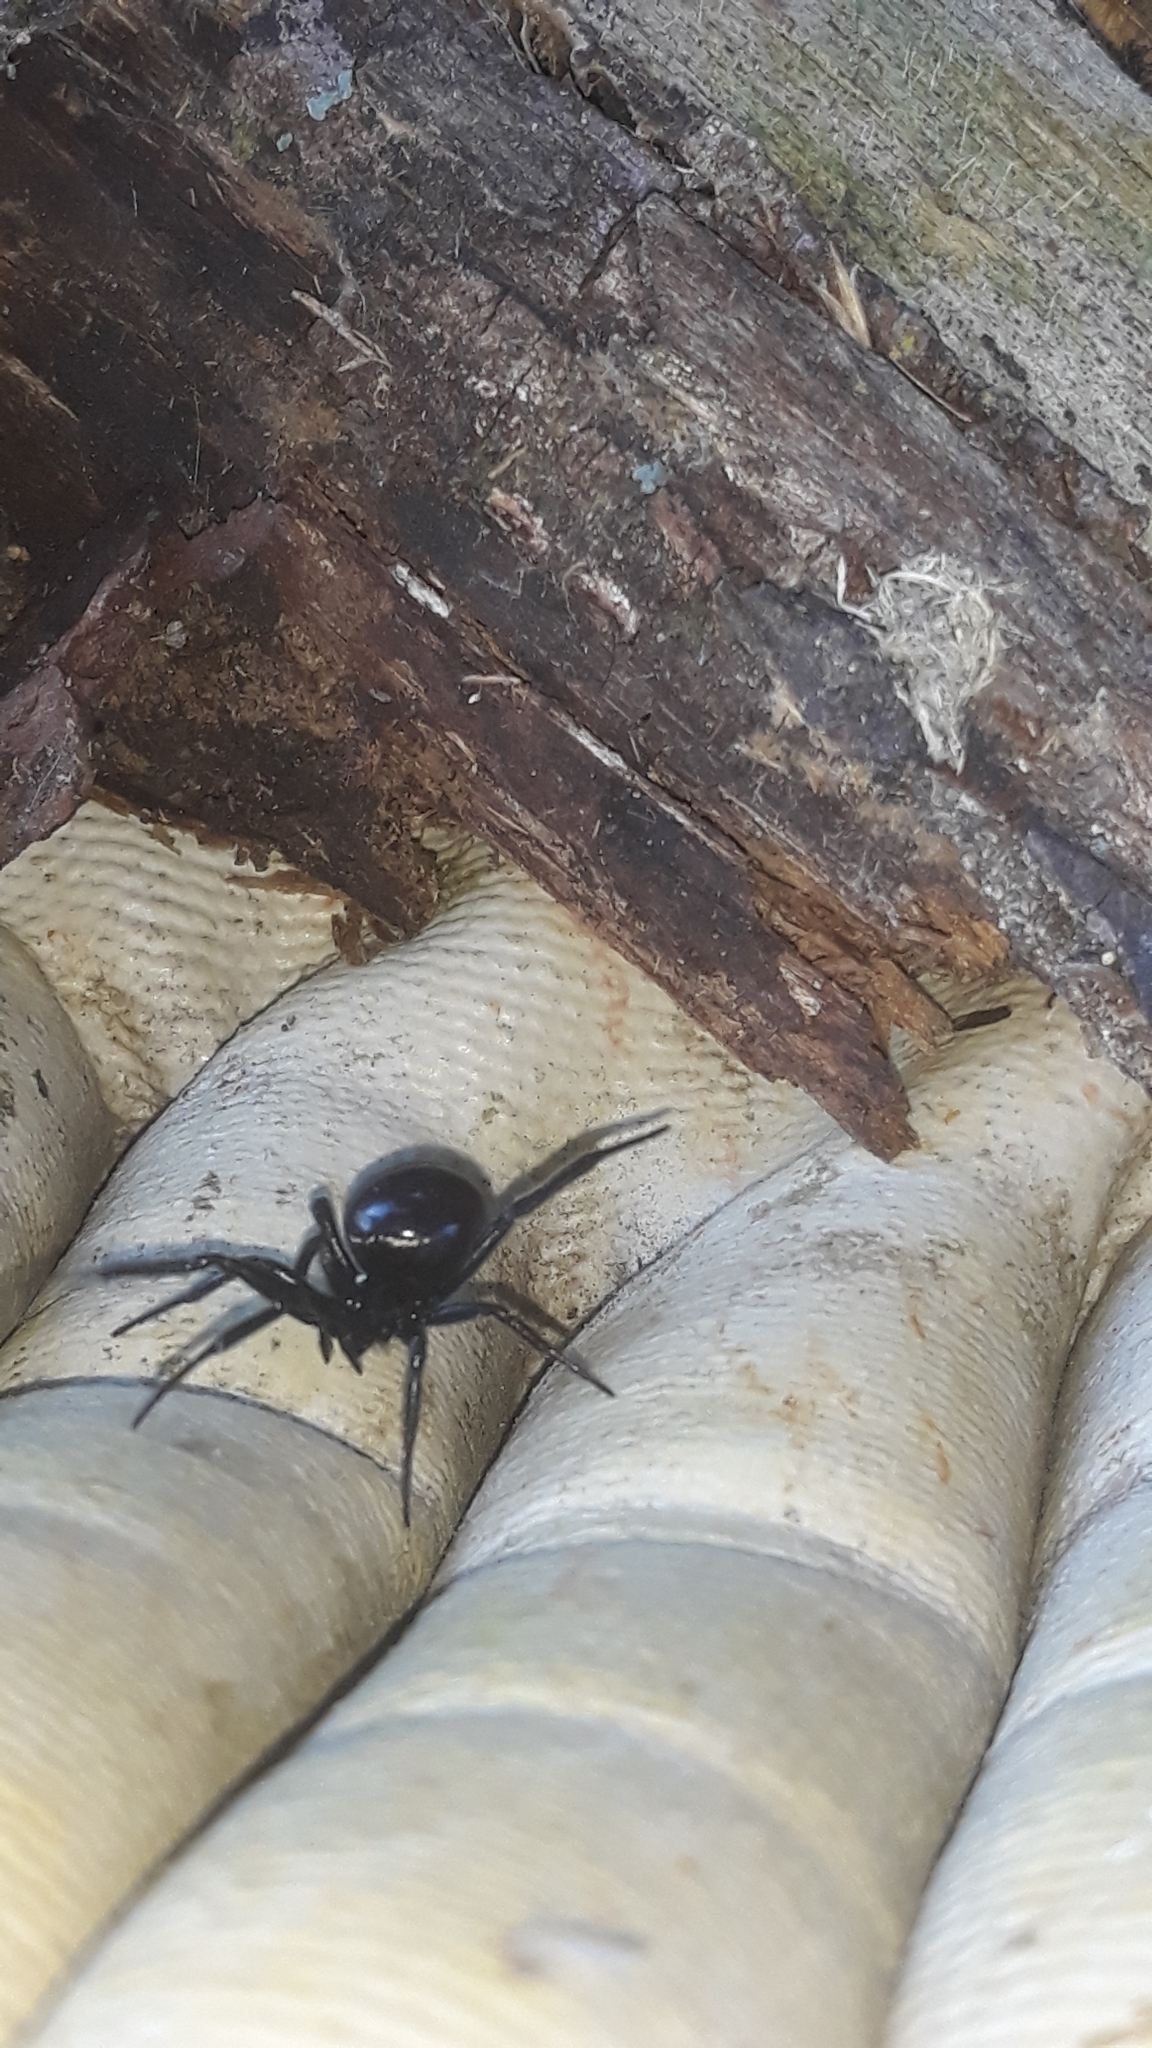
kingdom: Animalia
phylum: Arthropoda
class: Arachnida
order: Araneae
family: Theridiidae
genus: Steatoda
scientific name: Steatoda capensis
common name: Cobweb weaver
